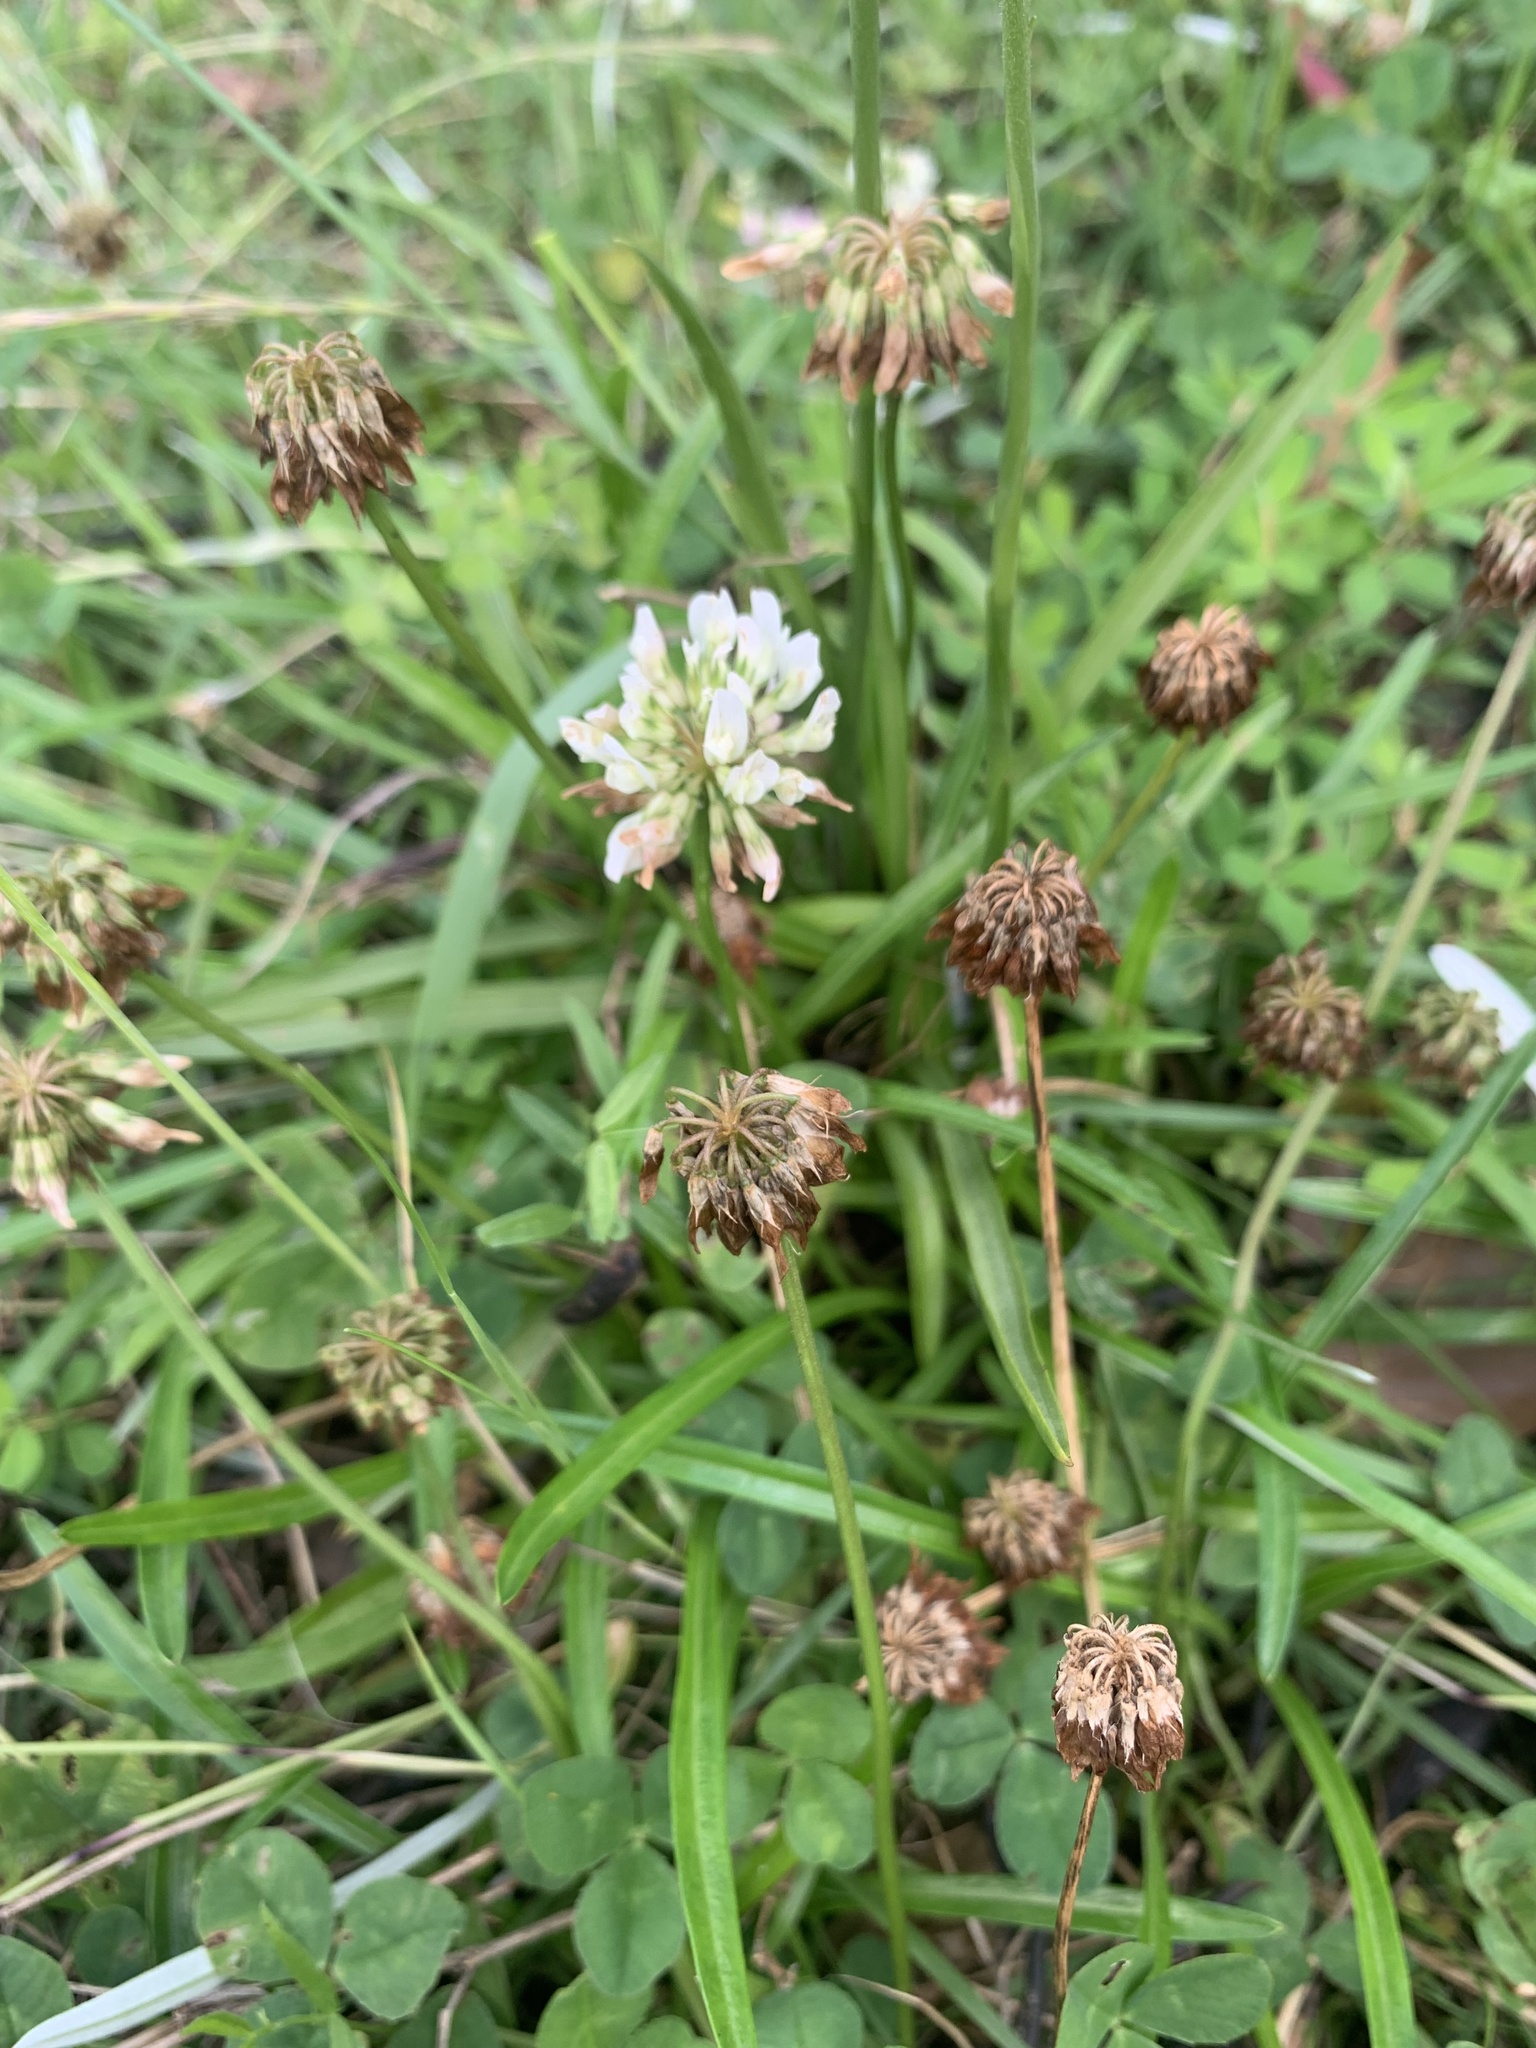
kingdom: Plantae
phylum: Tracheophyta
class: Magnoliopsida
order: Fabales
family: Fabaceae
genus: Trifolium
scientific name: Trifolium repens
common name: White clover
